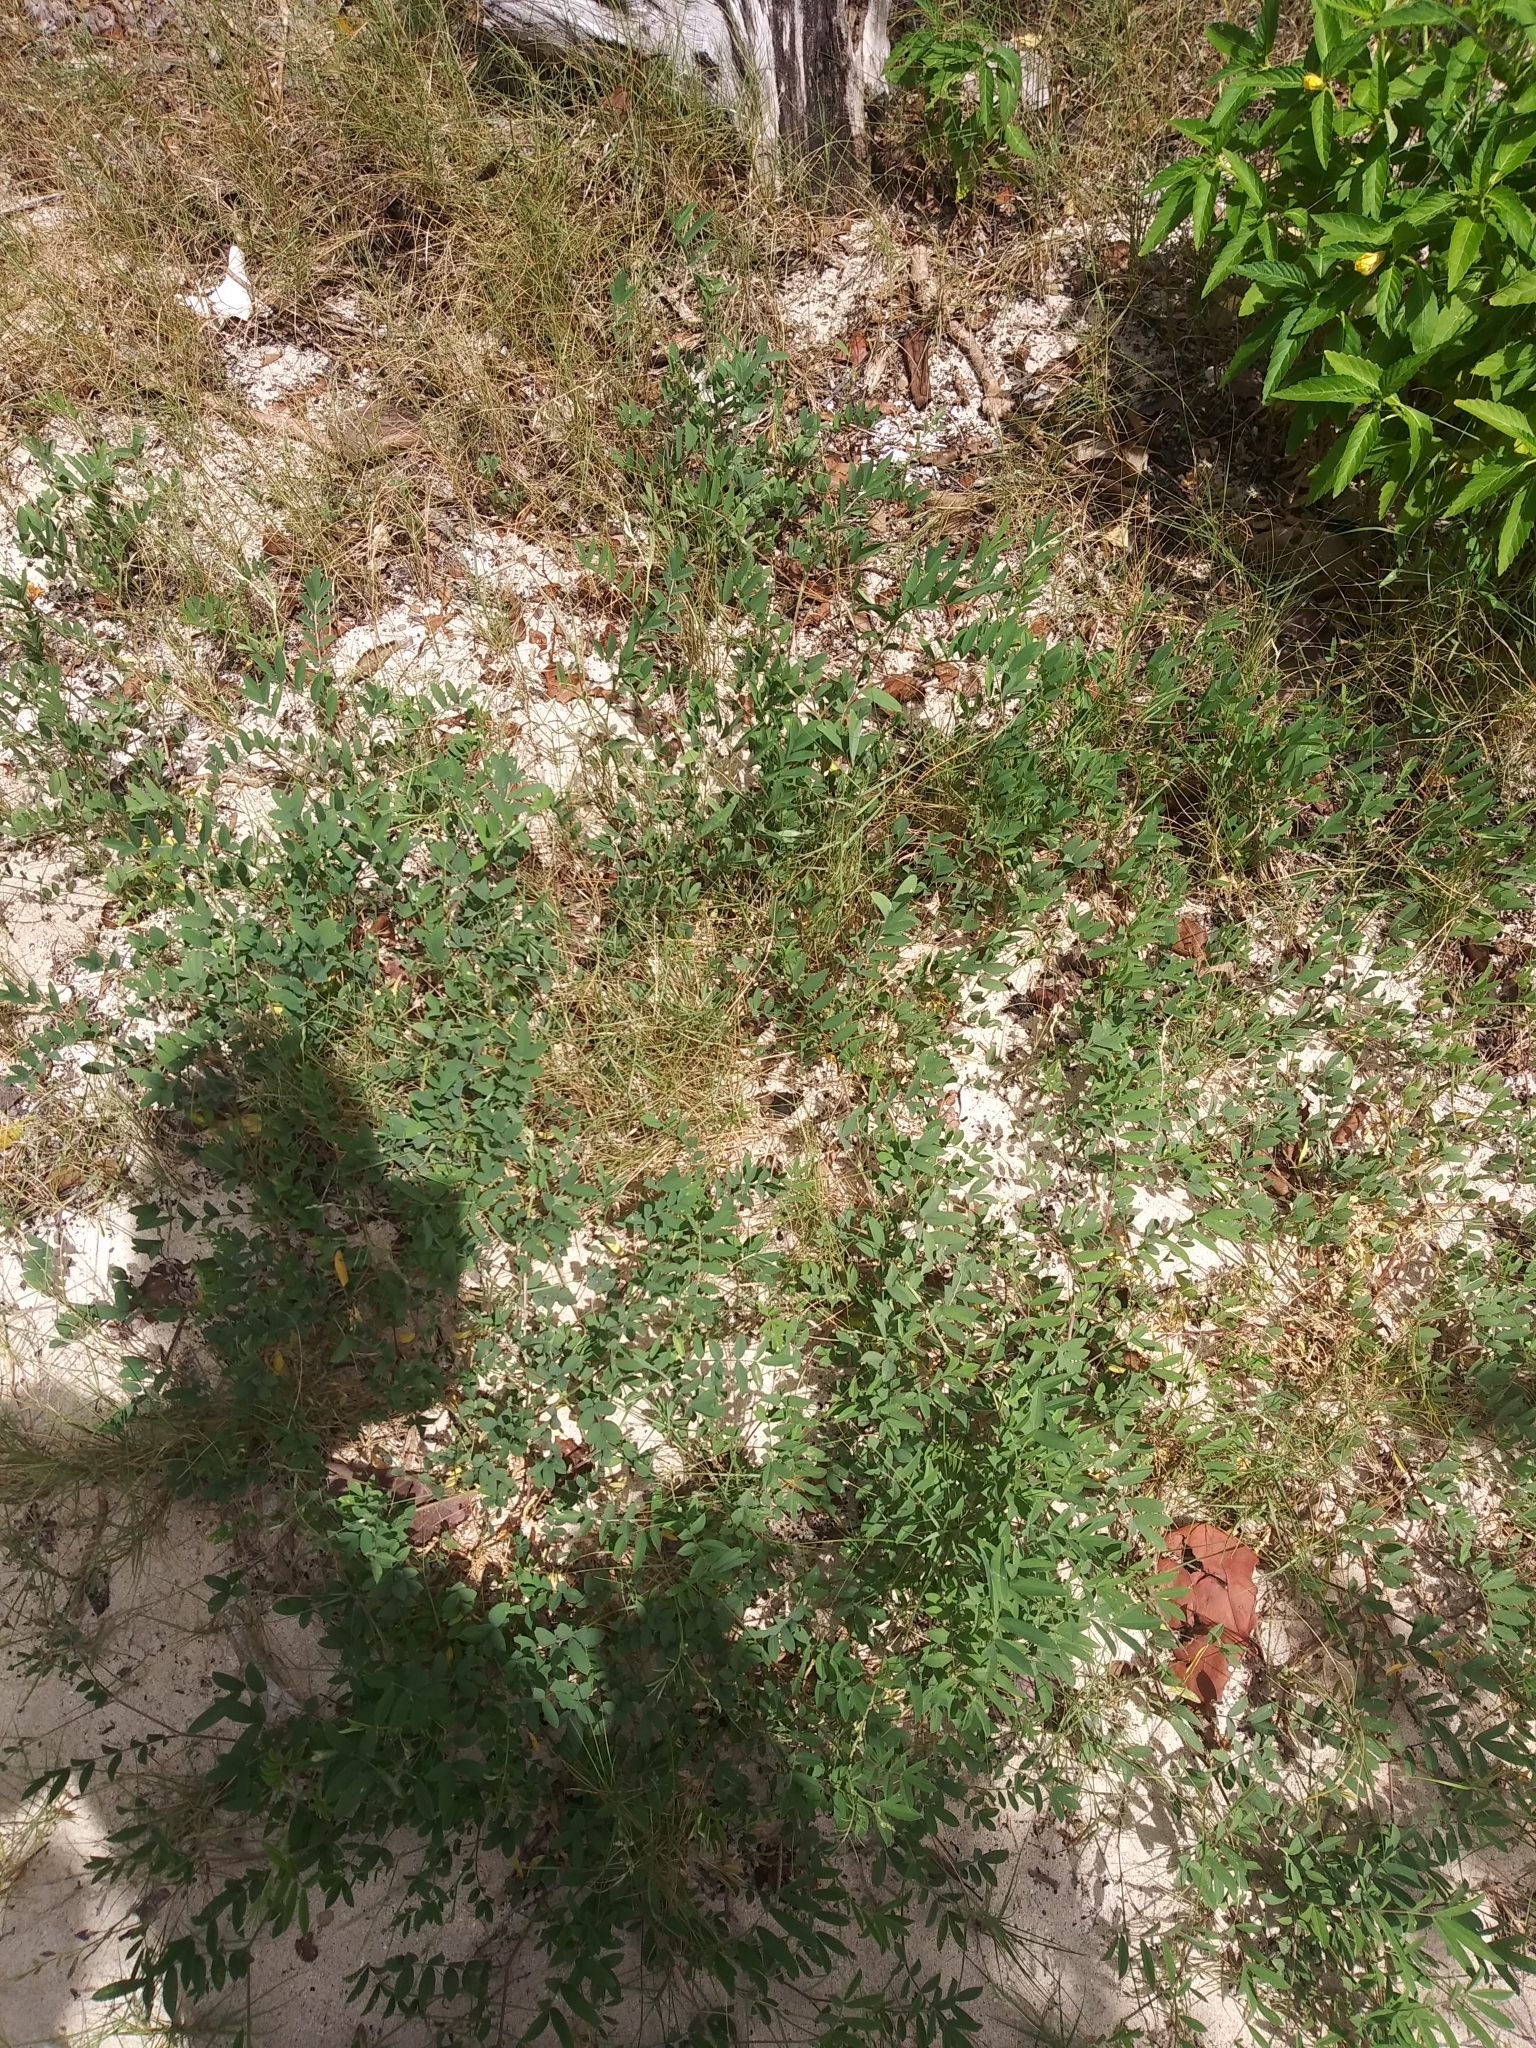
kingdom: Plantae
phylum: Tracheophyta
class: Magnoliopsida
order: Fabales
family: Fabaceae
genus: Tephrosia
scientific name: Tephrosia cinerea
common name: Ashen hoarypea
